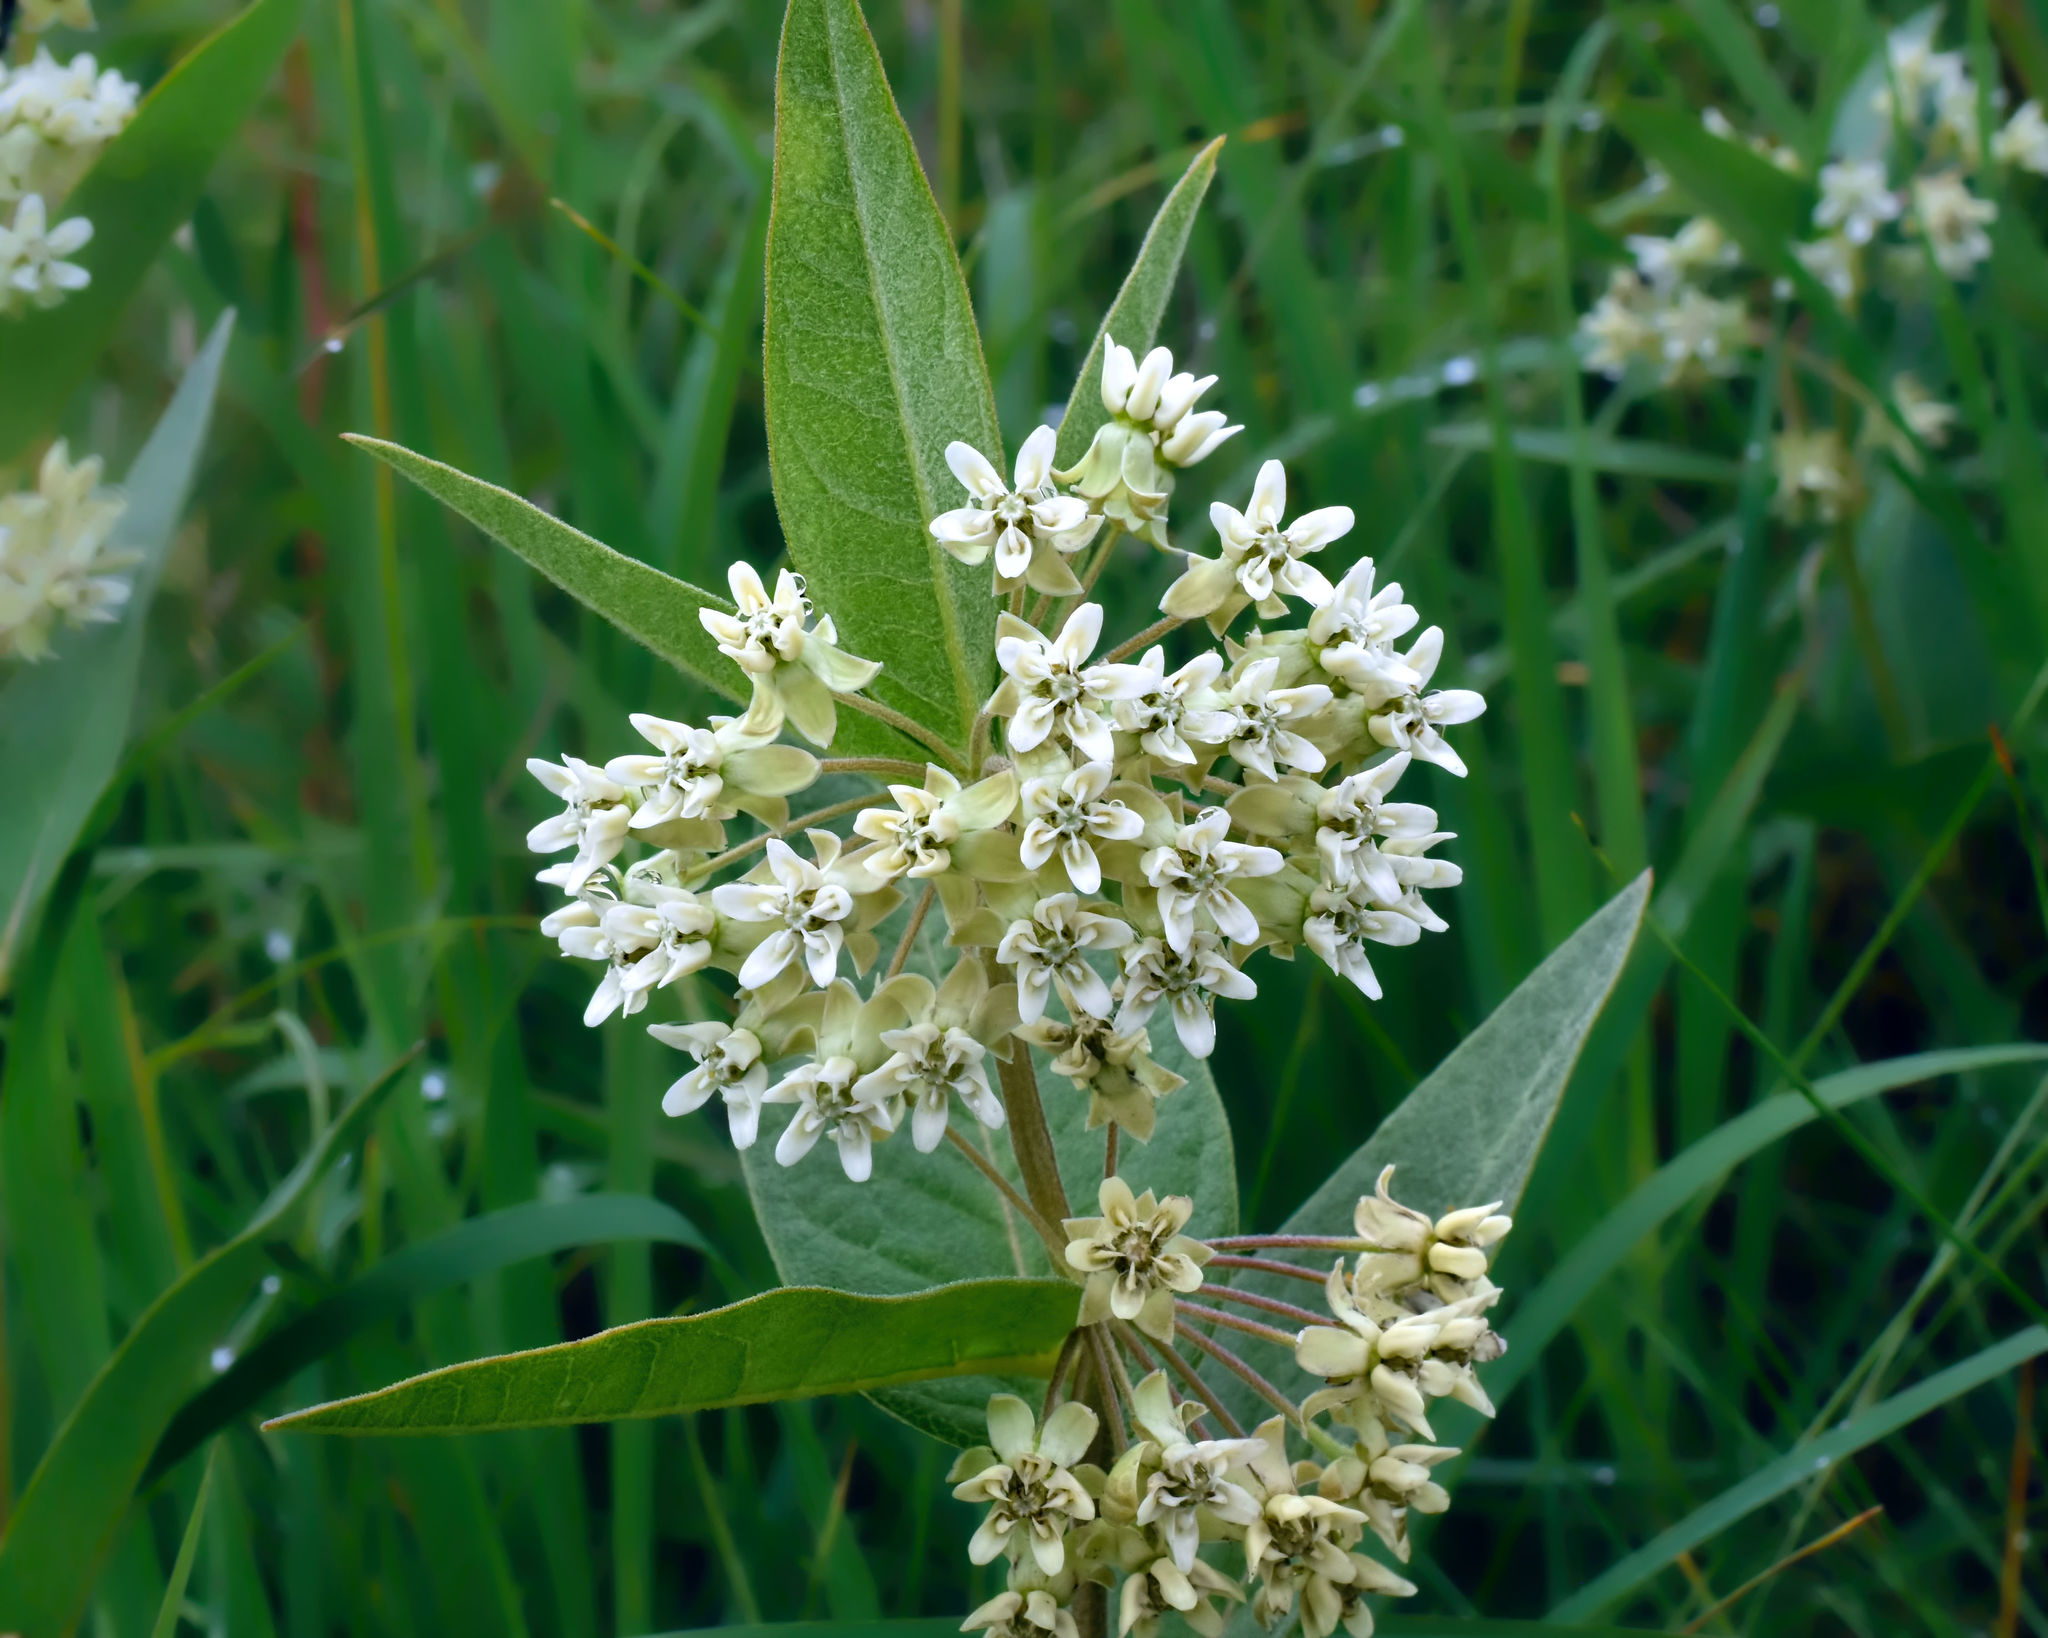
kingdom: Plantae
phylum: Tracheophyta
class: Magnoliopsida
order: Gentianales
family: Apocynaceae
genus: Asclepias
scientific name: Asclepias ovalifolia
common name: Dwarf milkweed
